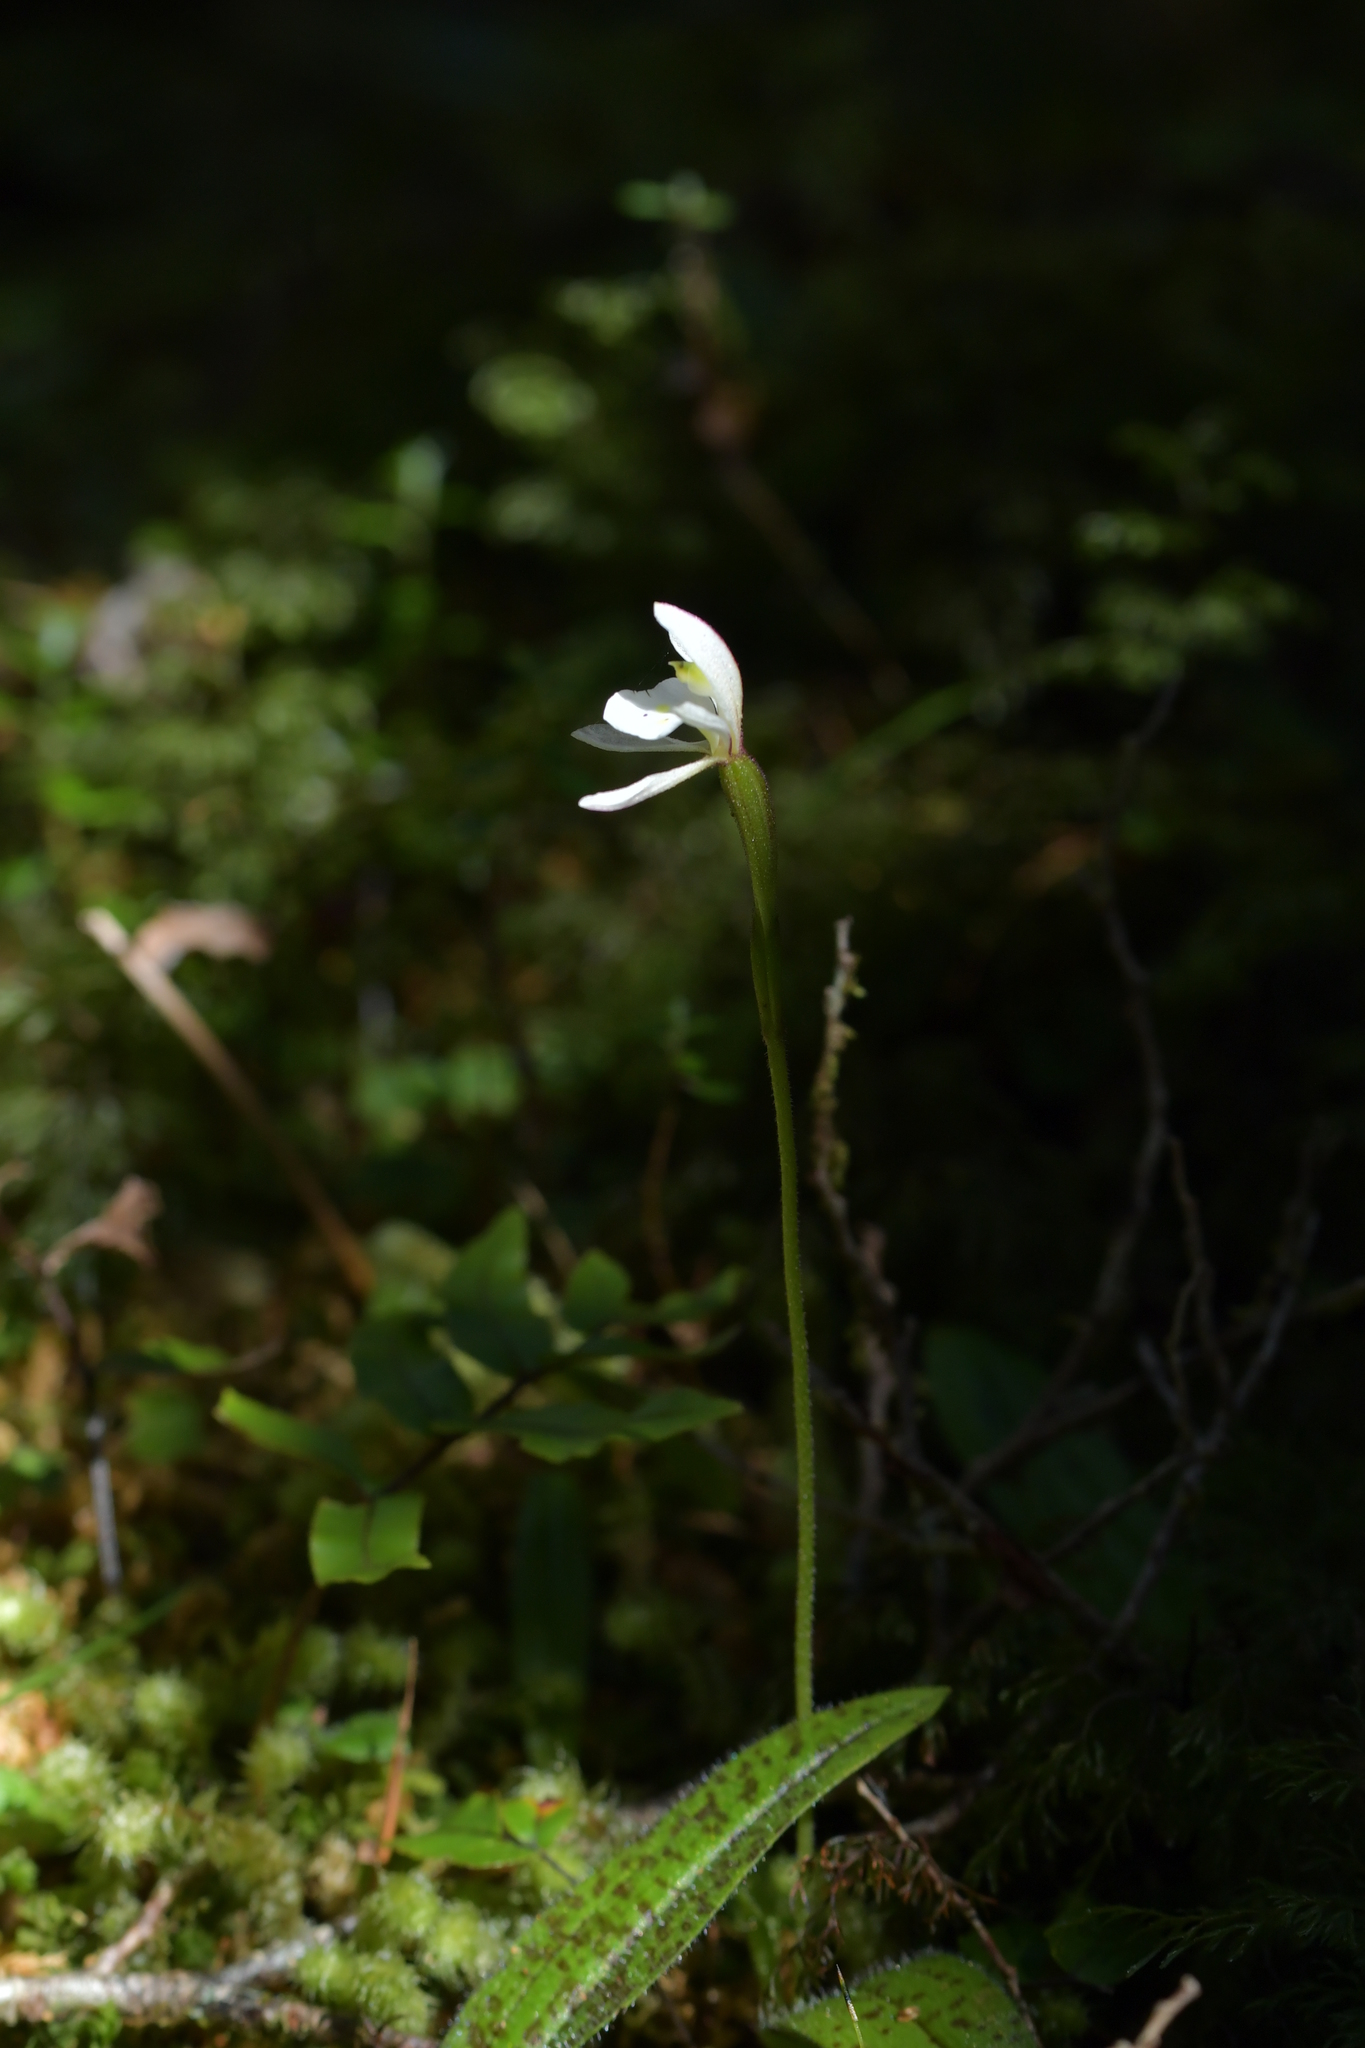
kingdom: Plantae
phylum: Tracheophyta
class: Liliopsida
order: Asparagales
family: Orchidaceae
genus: Aporostylis
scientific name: Aporostylis bifolia
